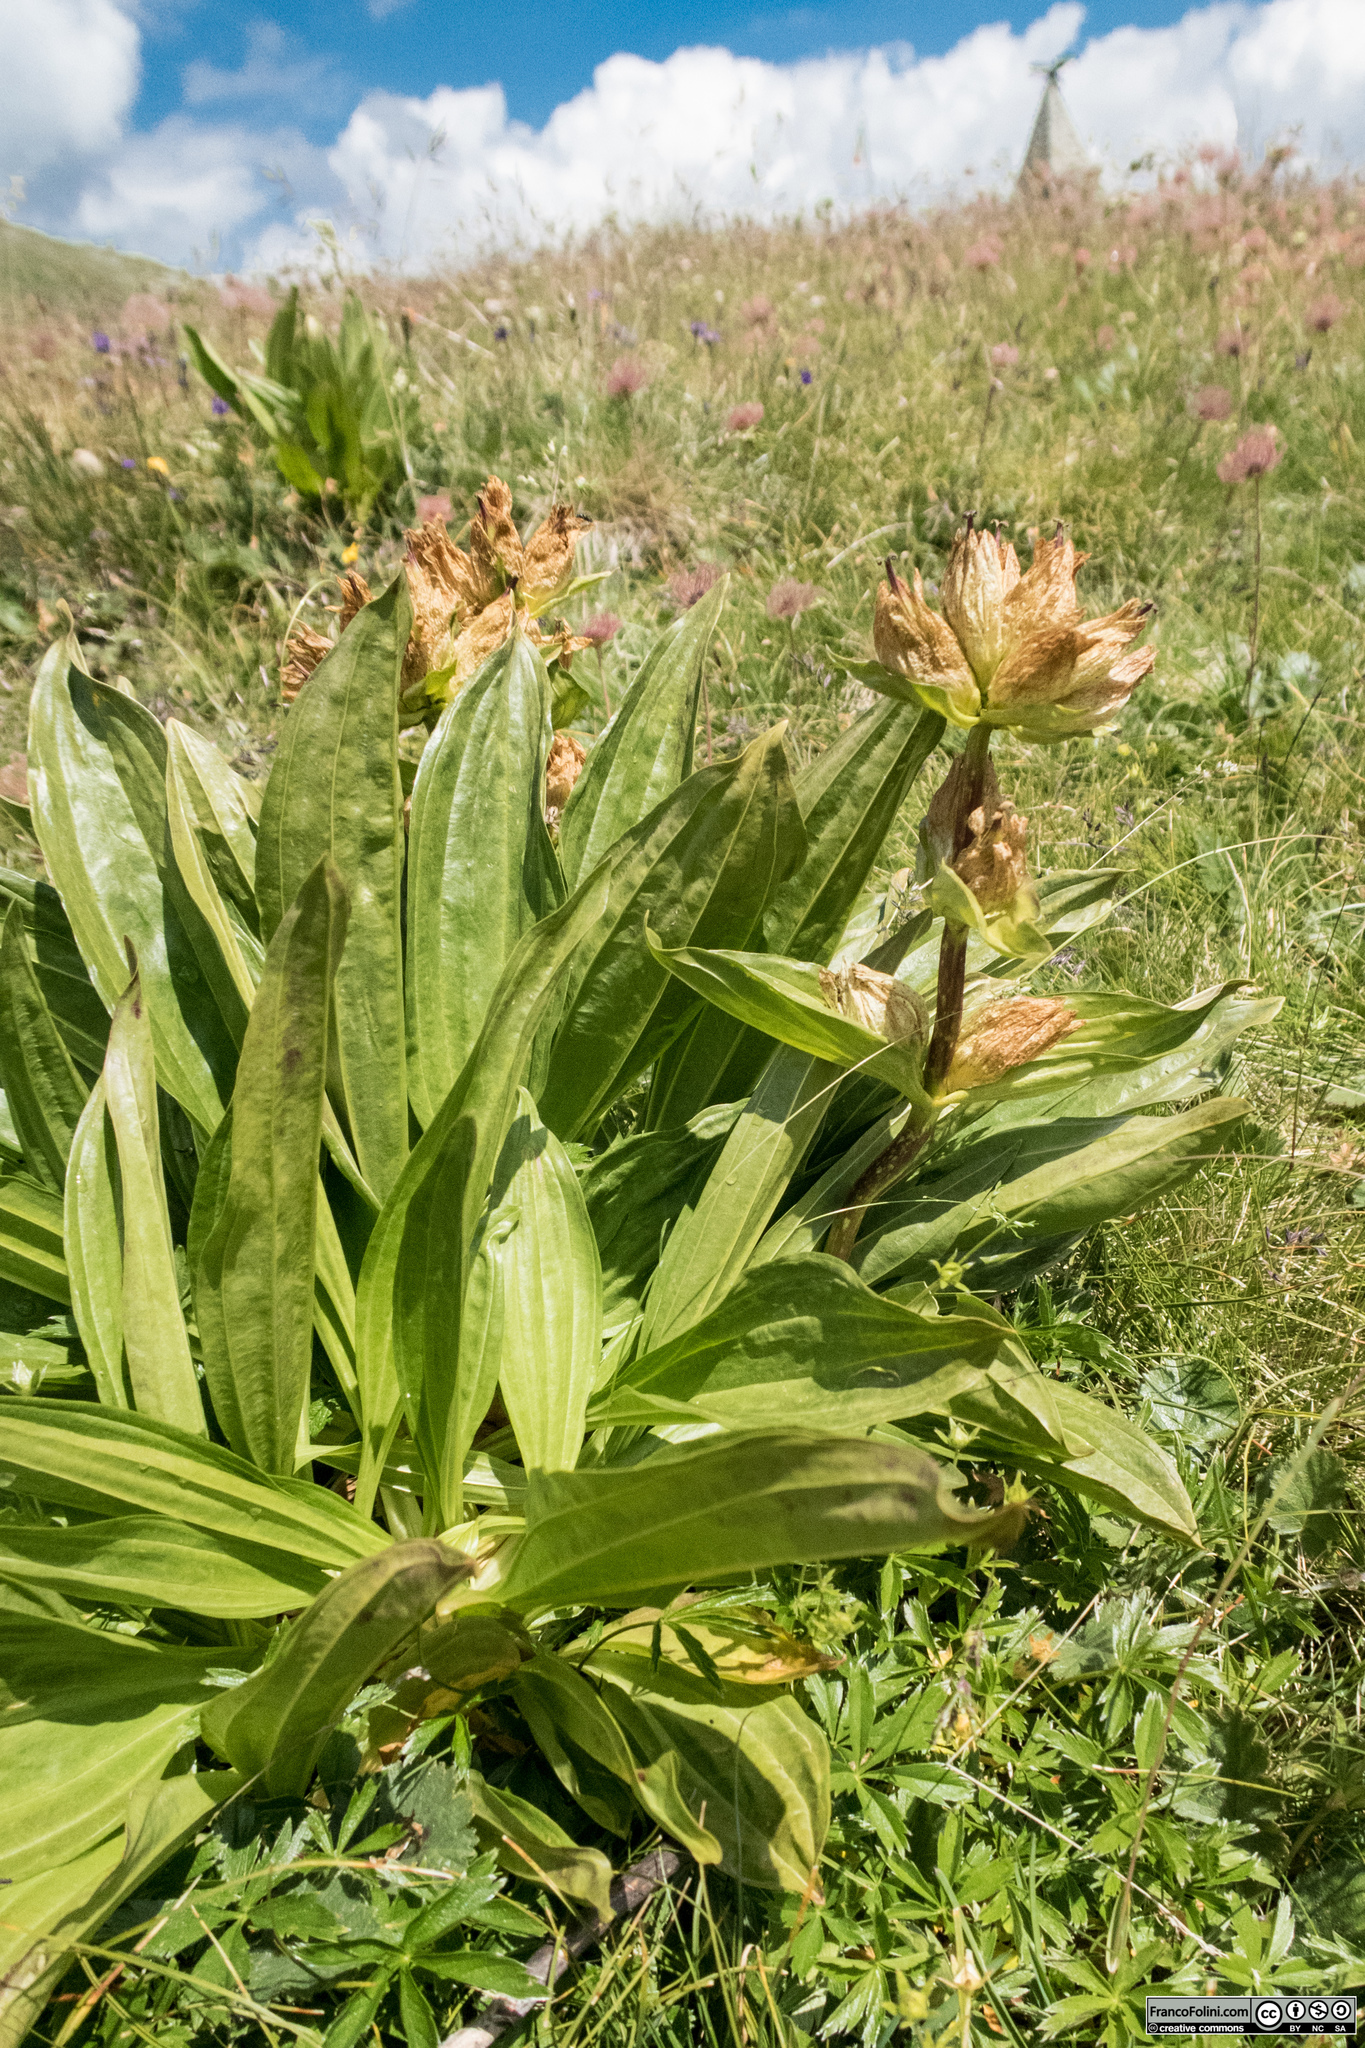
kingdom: Plantae
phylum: Tracheophyta
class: Magnoliopsida
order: Gentianales
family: Gentianaceae
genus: Gentiana
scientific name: Gentiana punctata
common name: Spotted gentian
